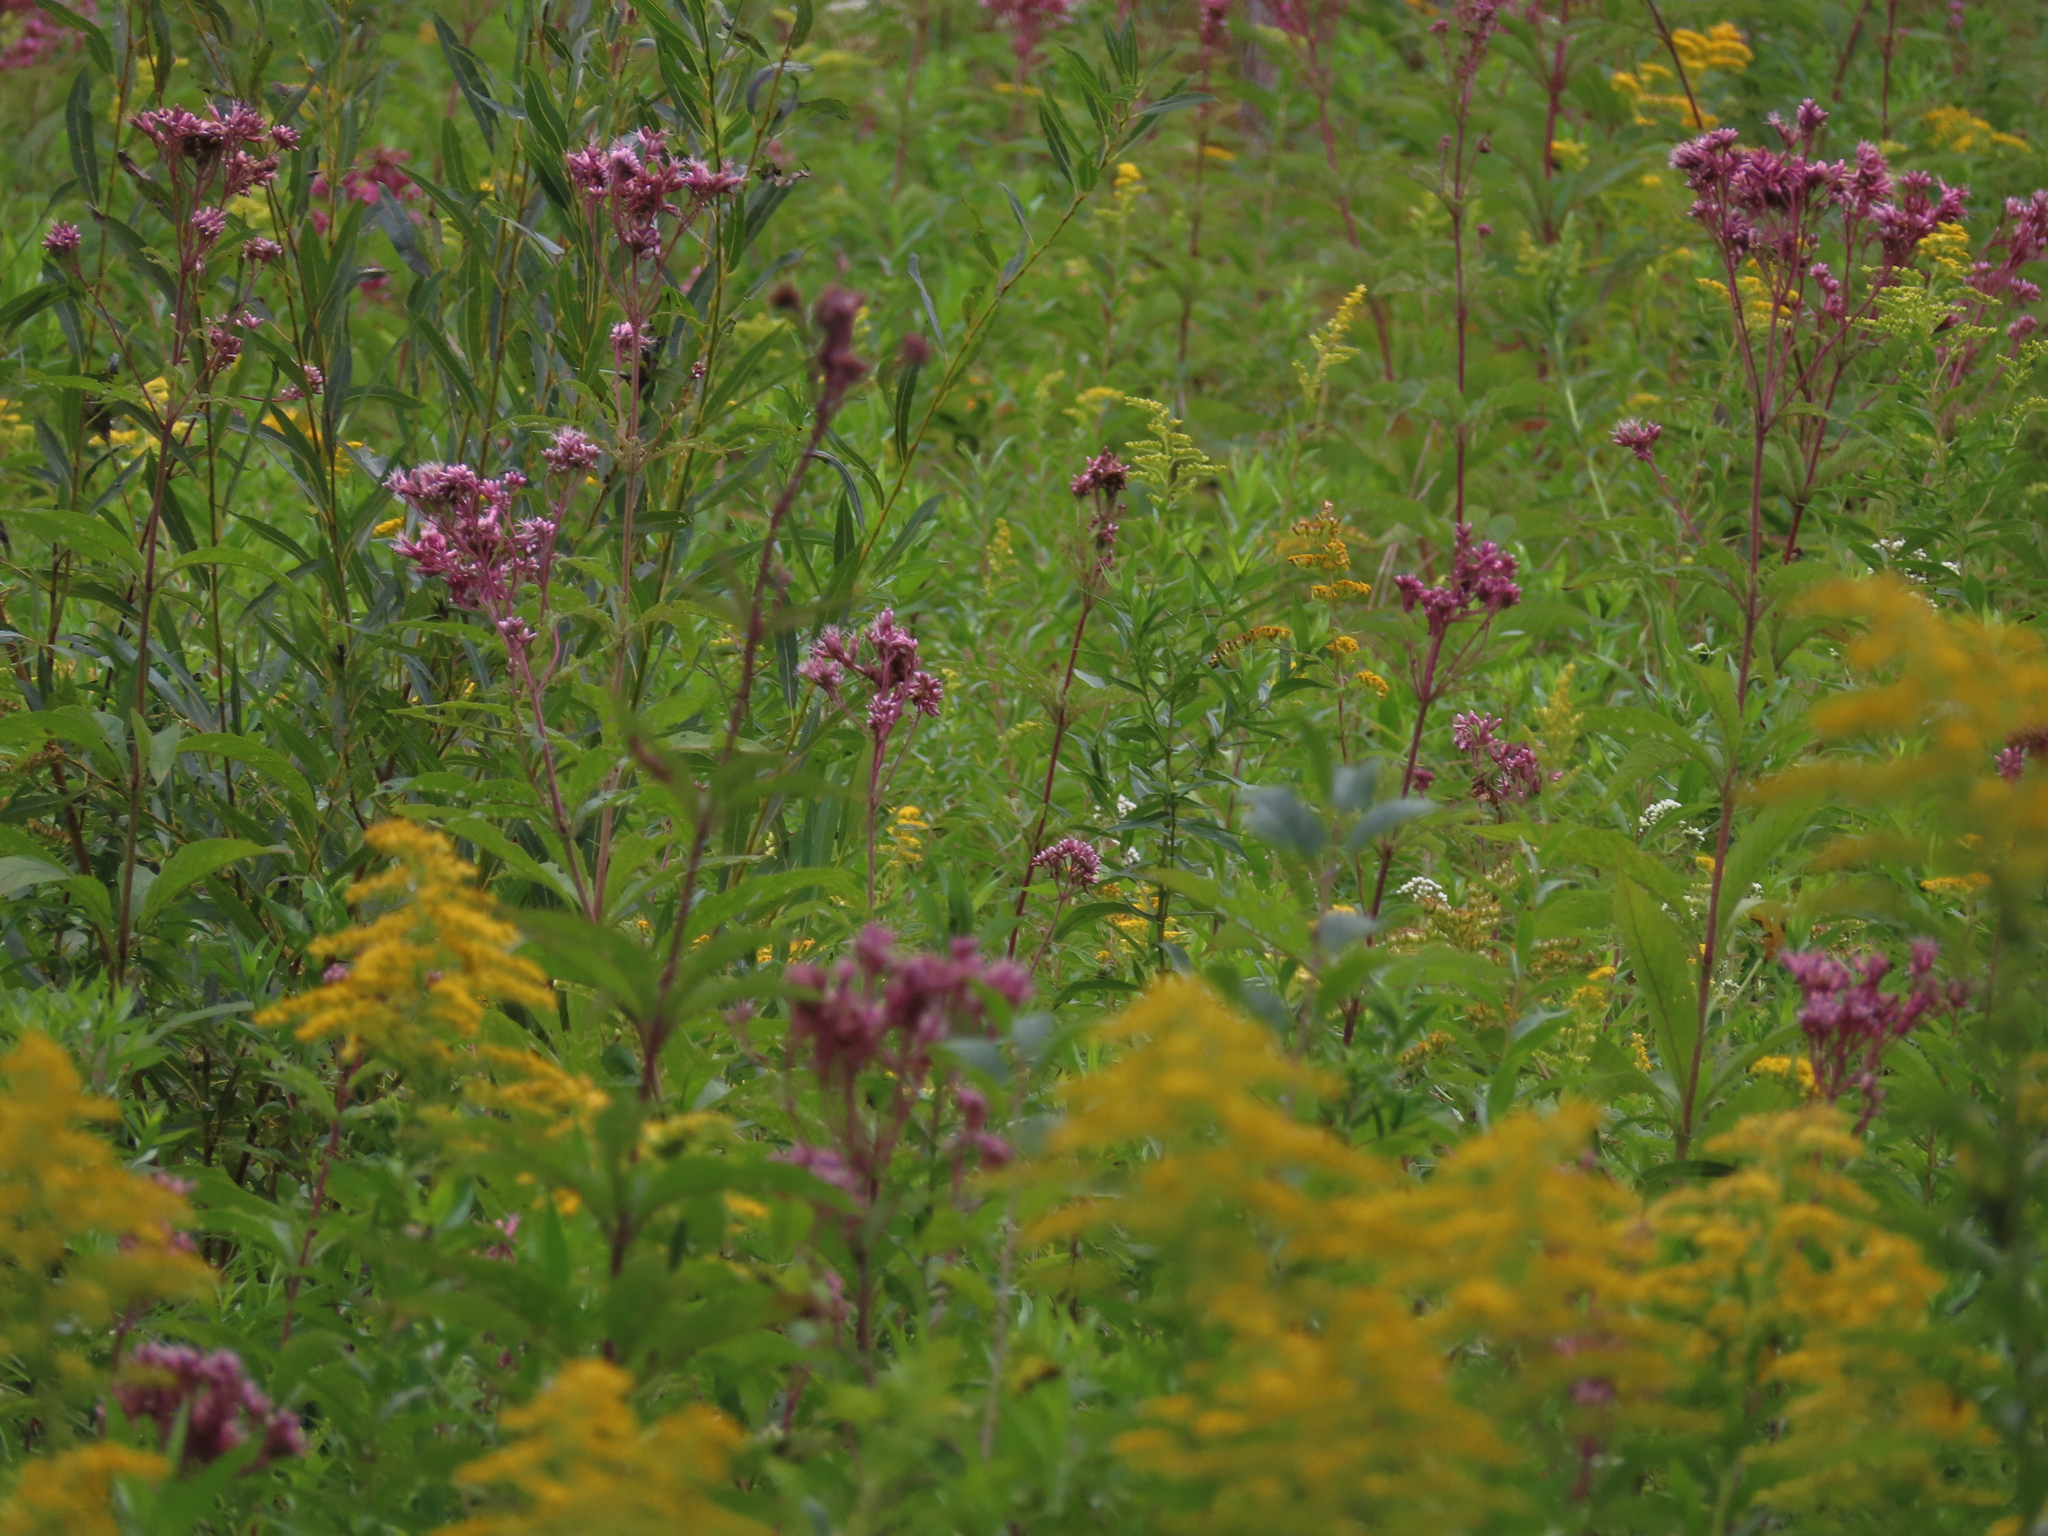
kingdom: Plantae
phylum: Tracheophyta
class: Magnoliopsida
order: Asterales
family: Asteraceae
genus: Eutrochium
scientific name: Eutrochium maculatum
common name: Spotted joe pye weed
